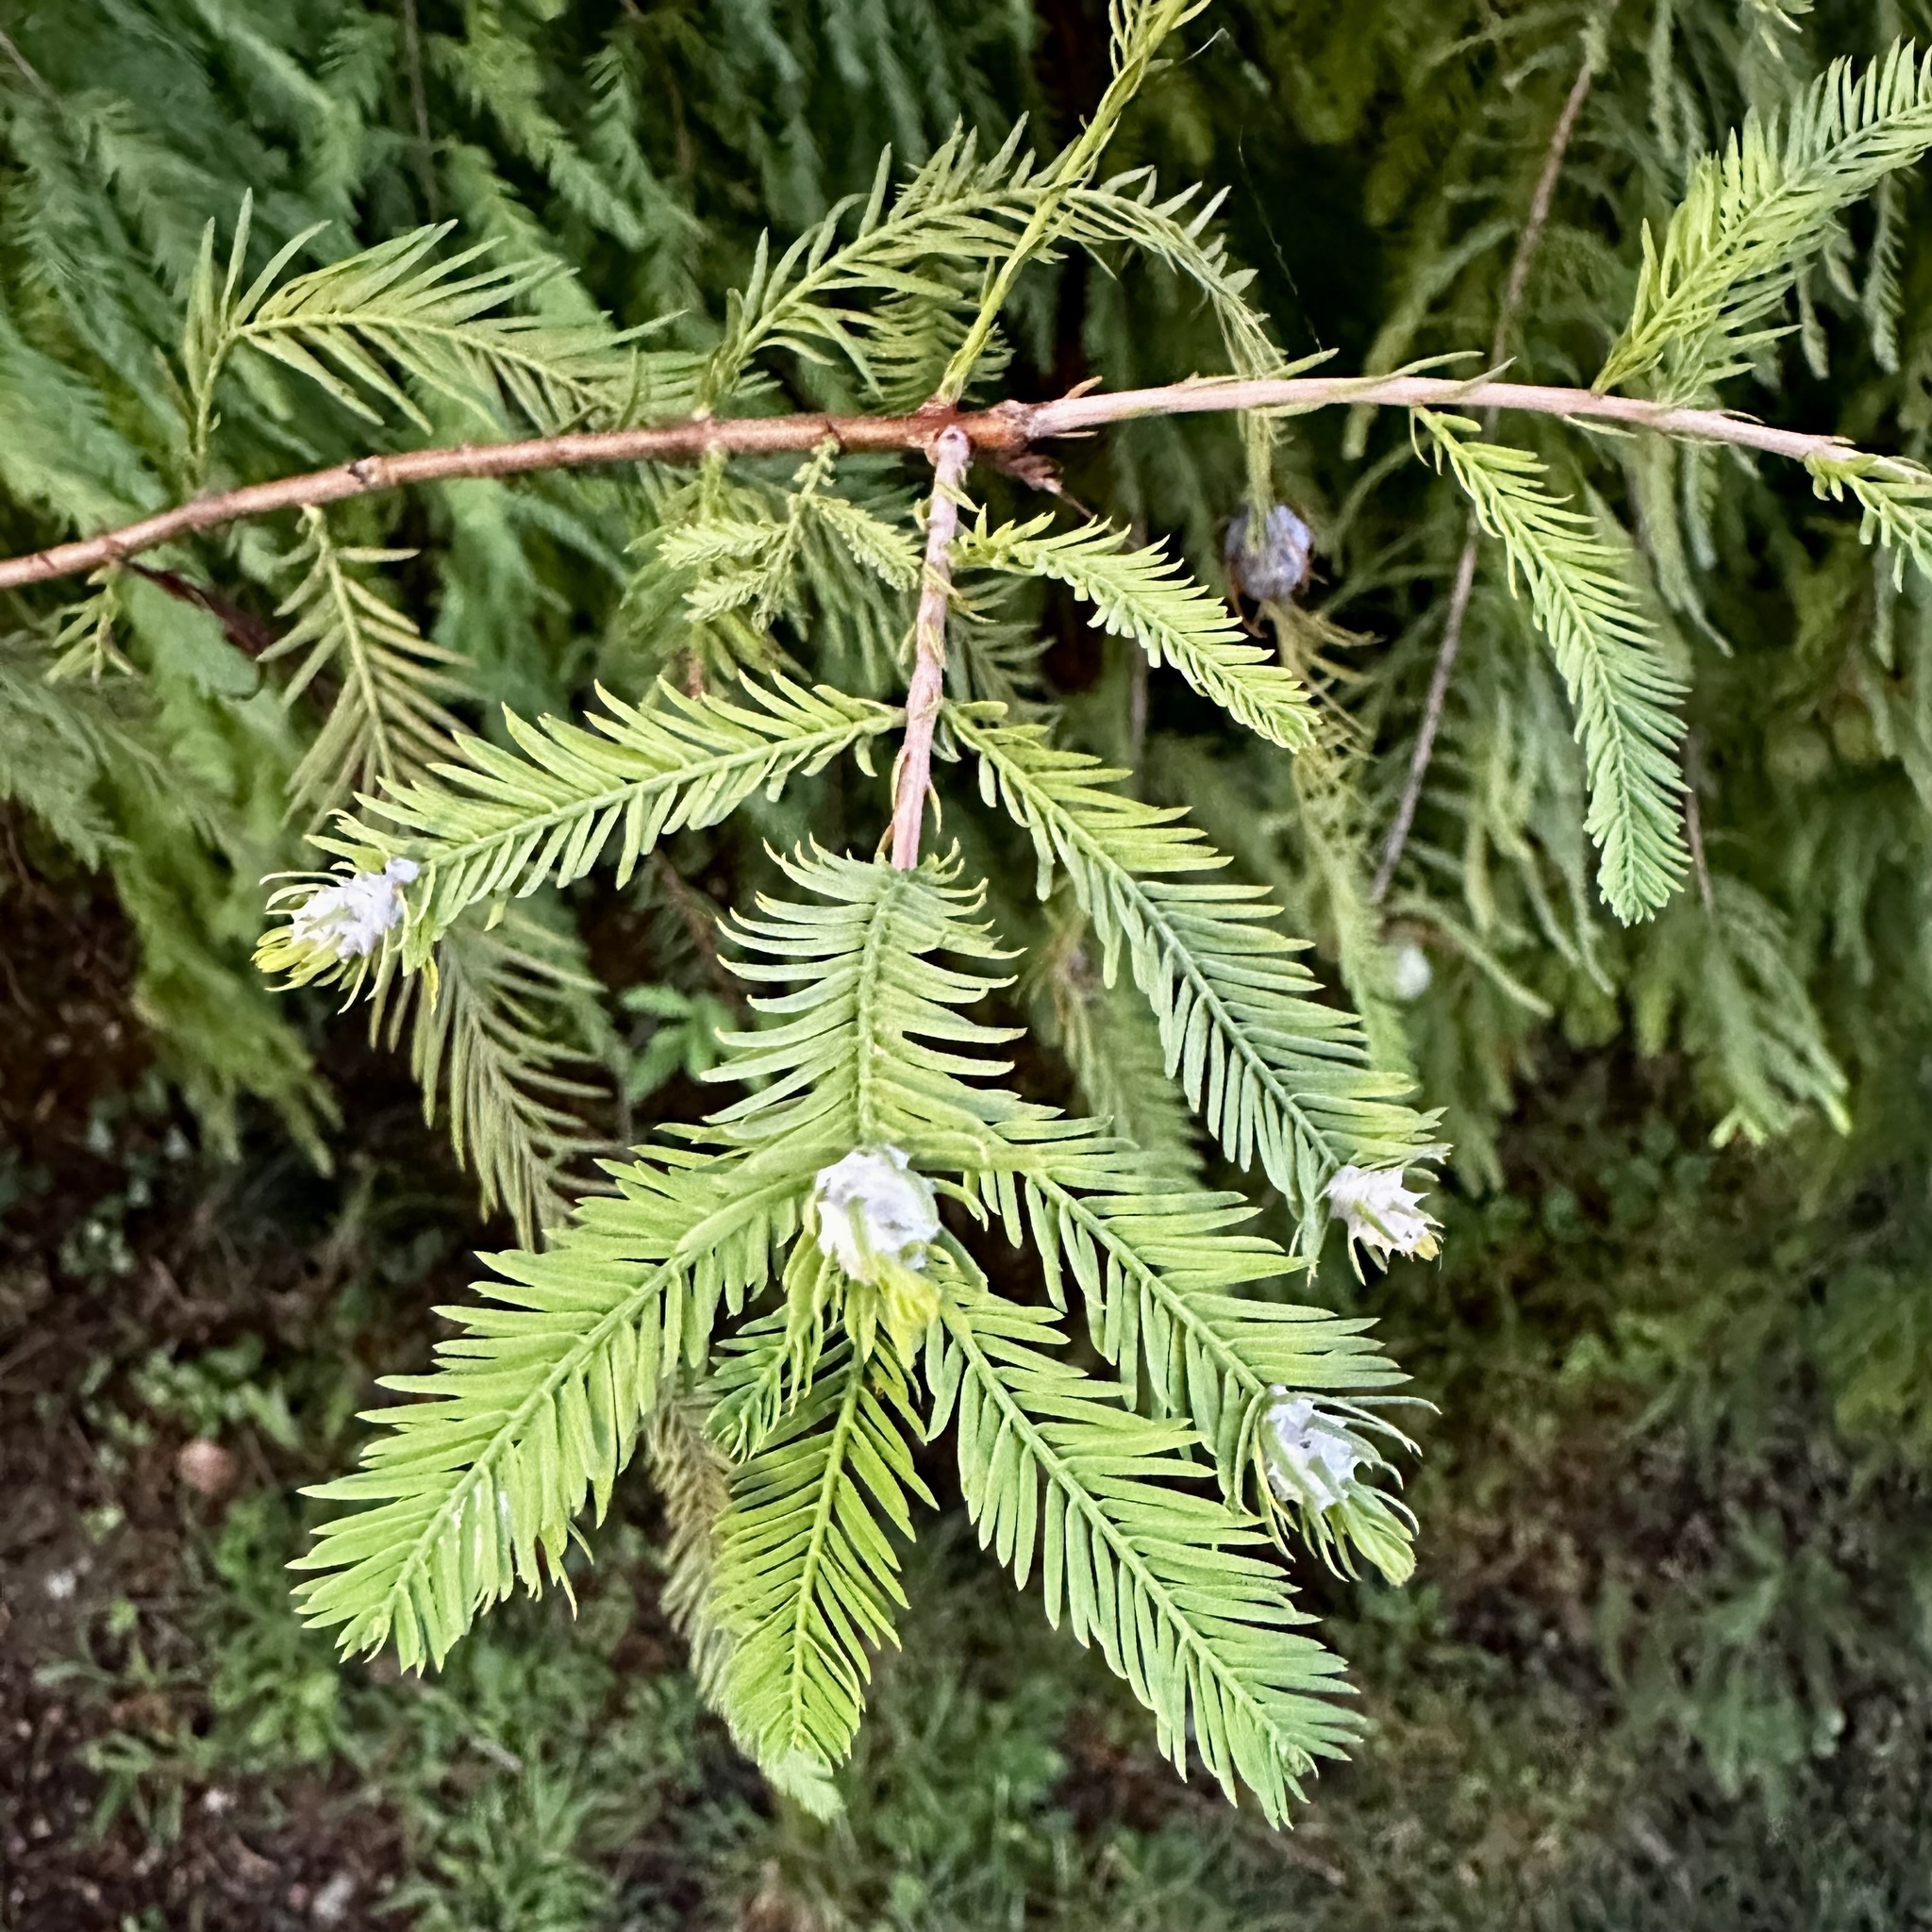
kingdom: Animalia
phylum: Arthropoda
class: Insecta
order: Diptera
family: Cecidomyiidae
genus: Taxodiomyia
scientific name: Taxodiomyia cupressiananassa
